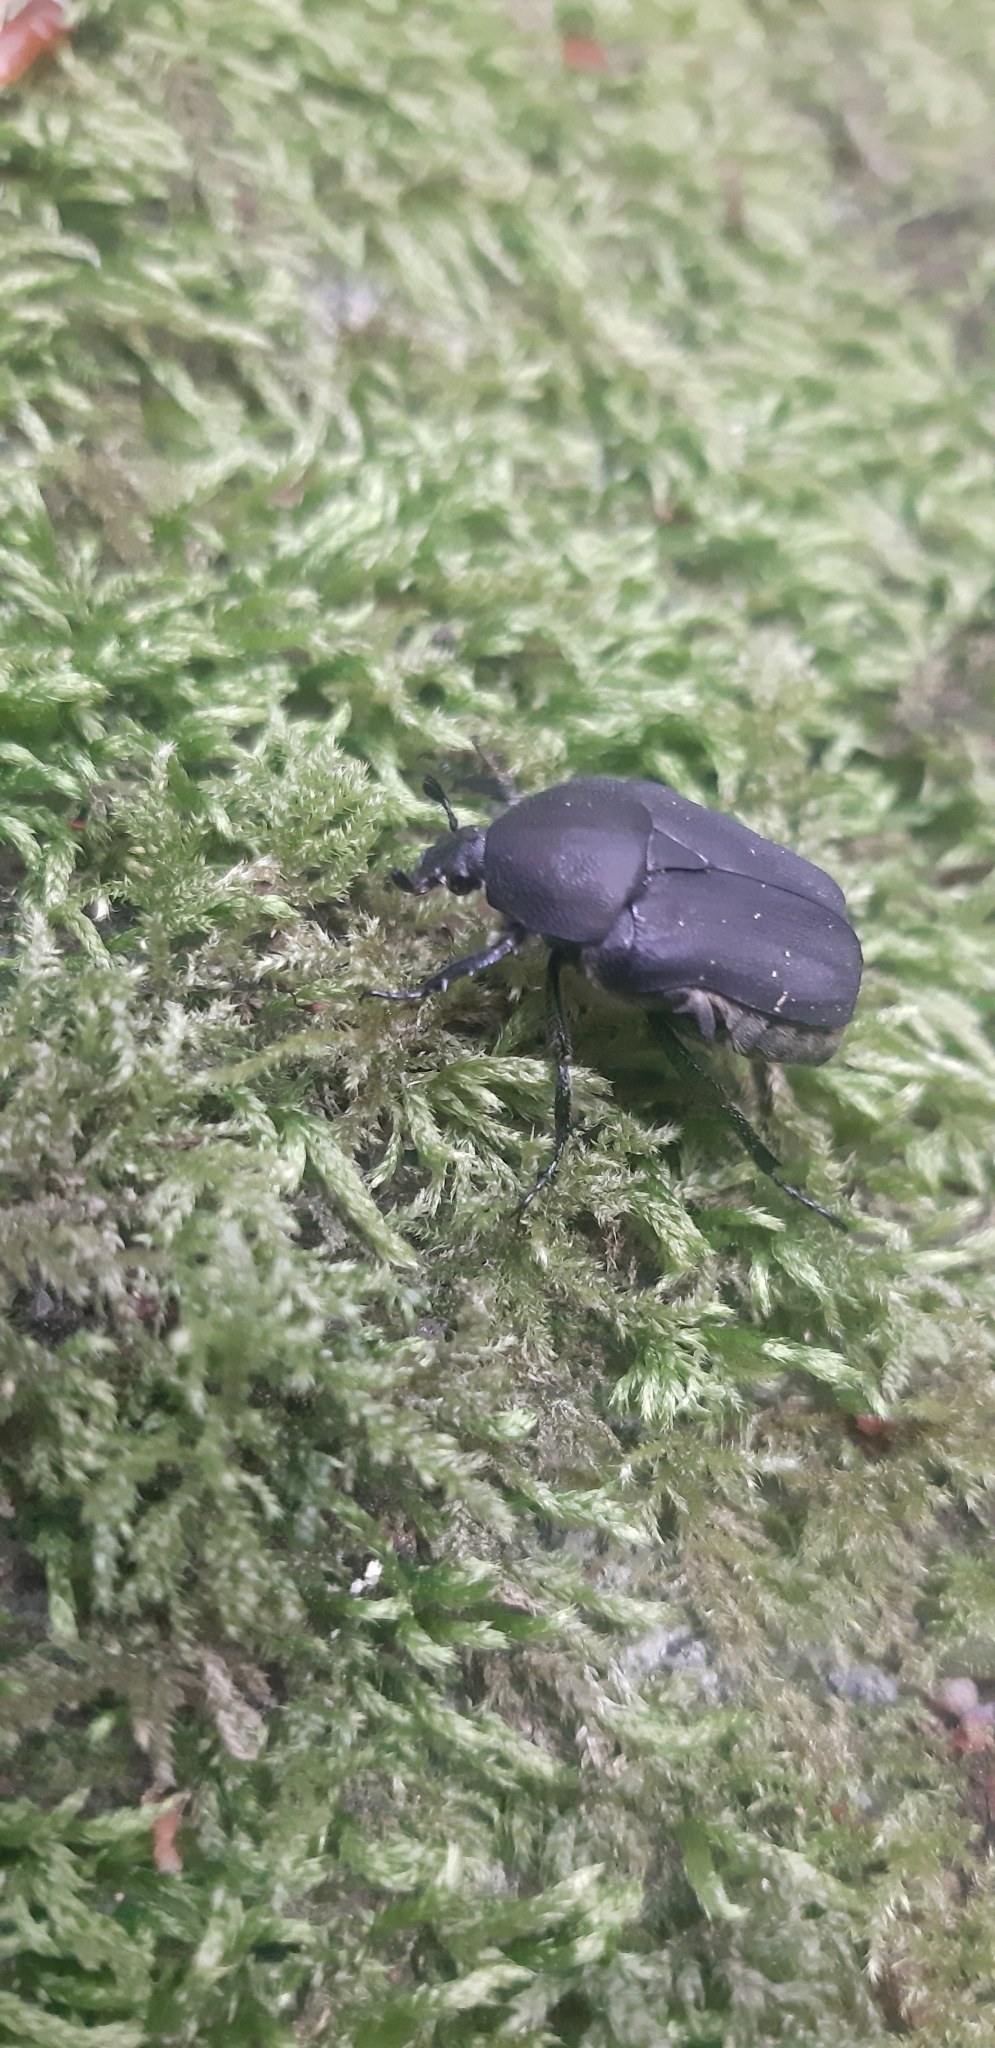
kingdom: Animalia
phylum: Arthropoda
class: Insecta
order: Coleoptera
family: Scarabaeidae
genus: Protaetia
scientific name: Protaetia morio
